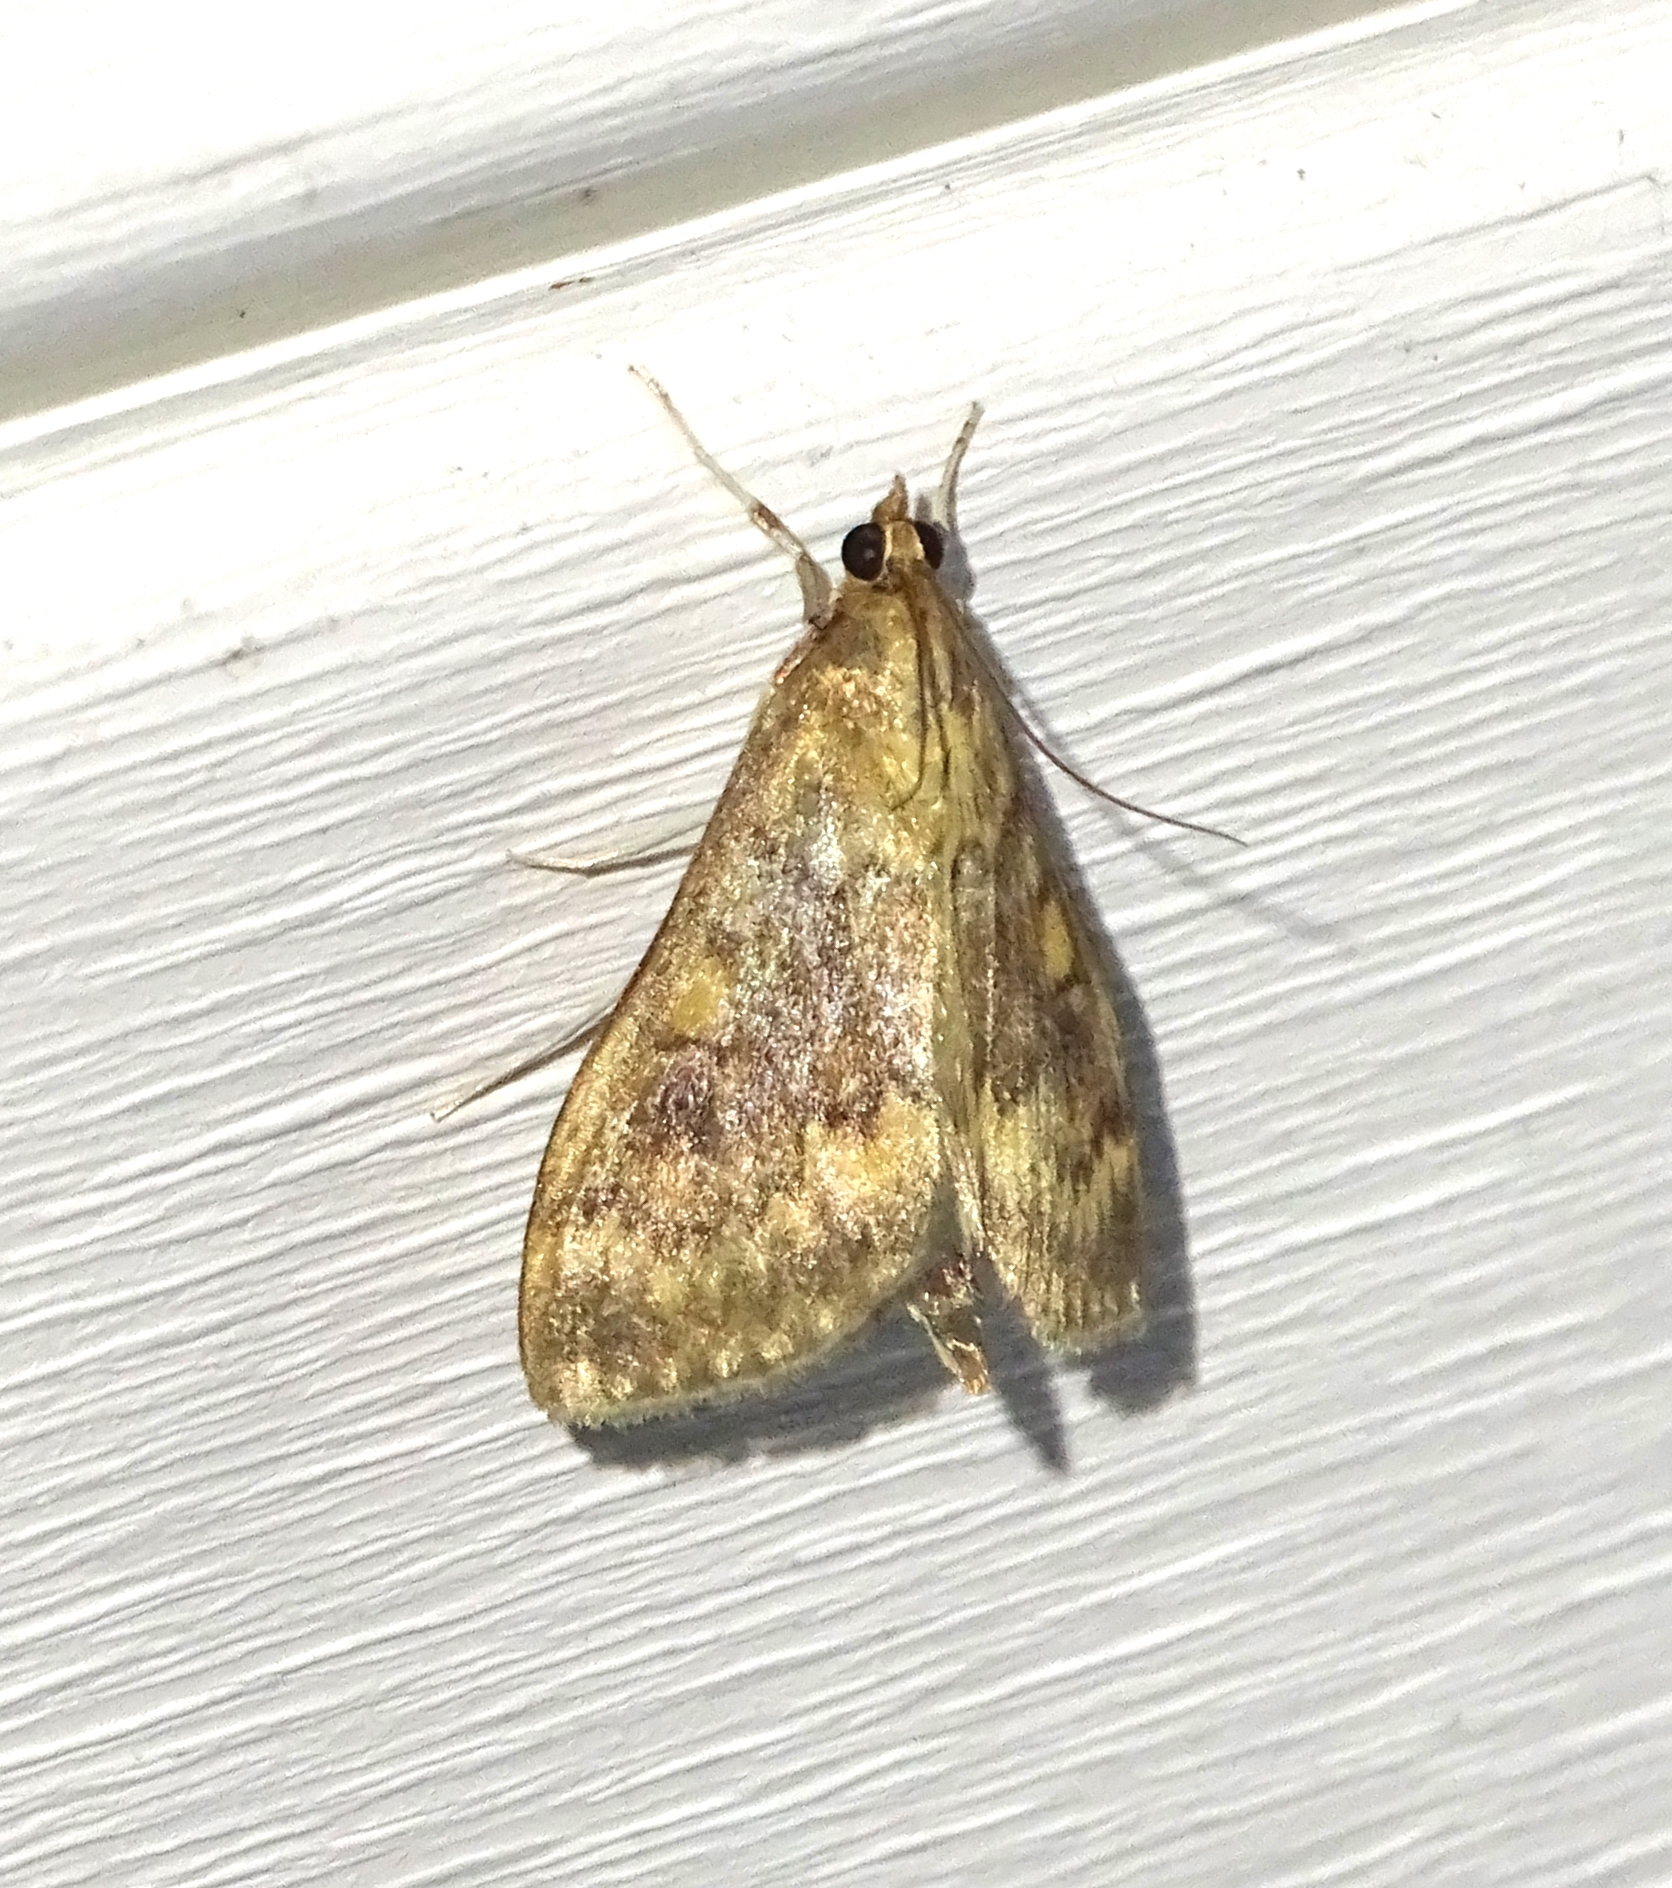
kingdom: Animalia
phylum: Arthropoda
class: Insecta
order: Lepidoptera
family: Crambidae
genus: Ostrinia
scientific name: Ostrinia nubilalis
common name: European corn borer
